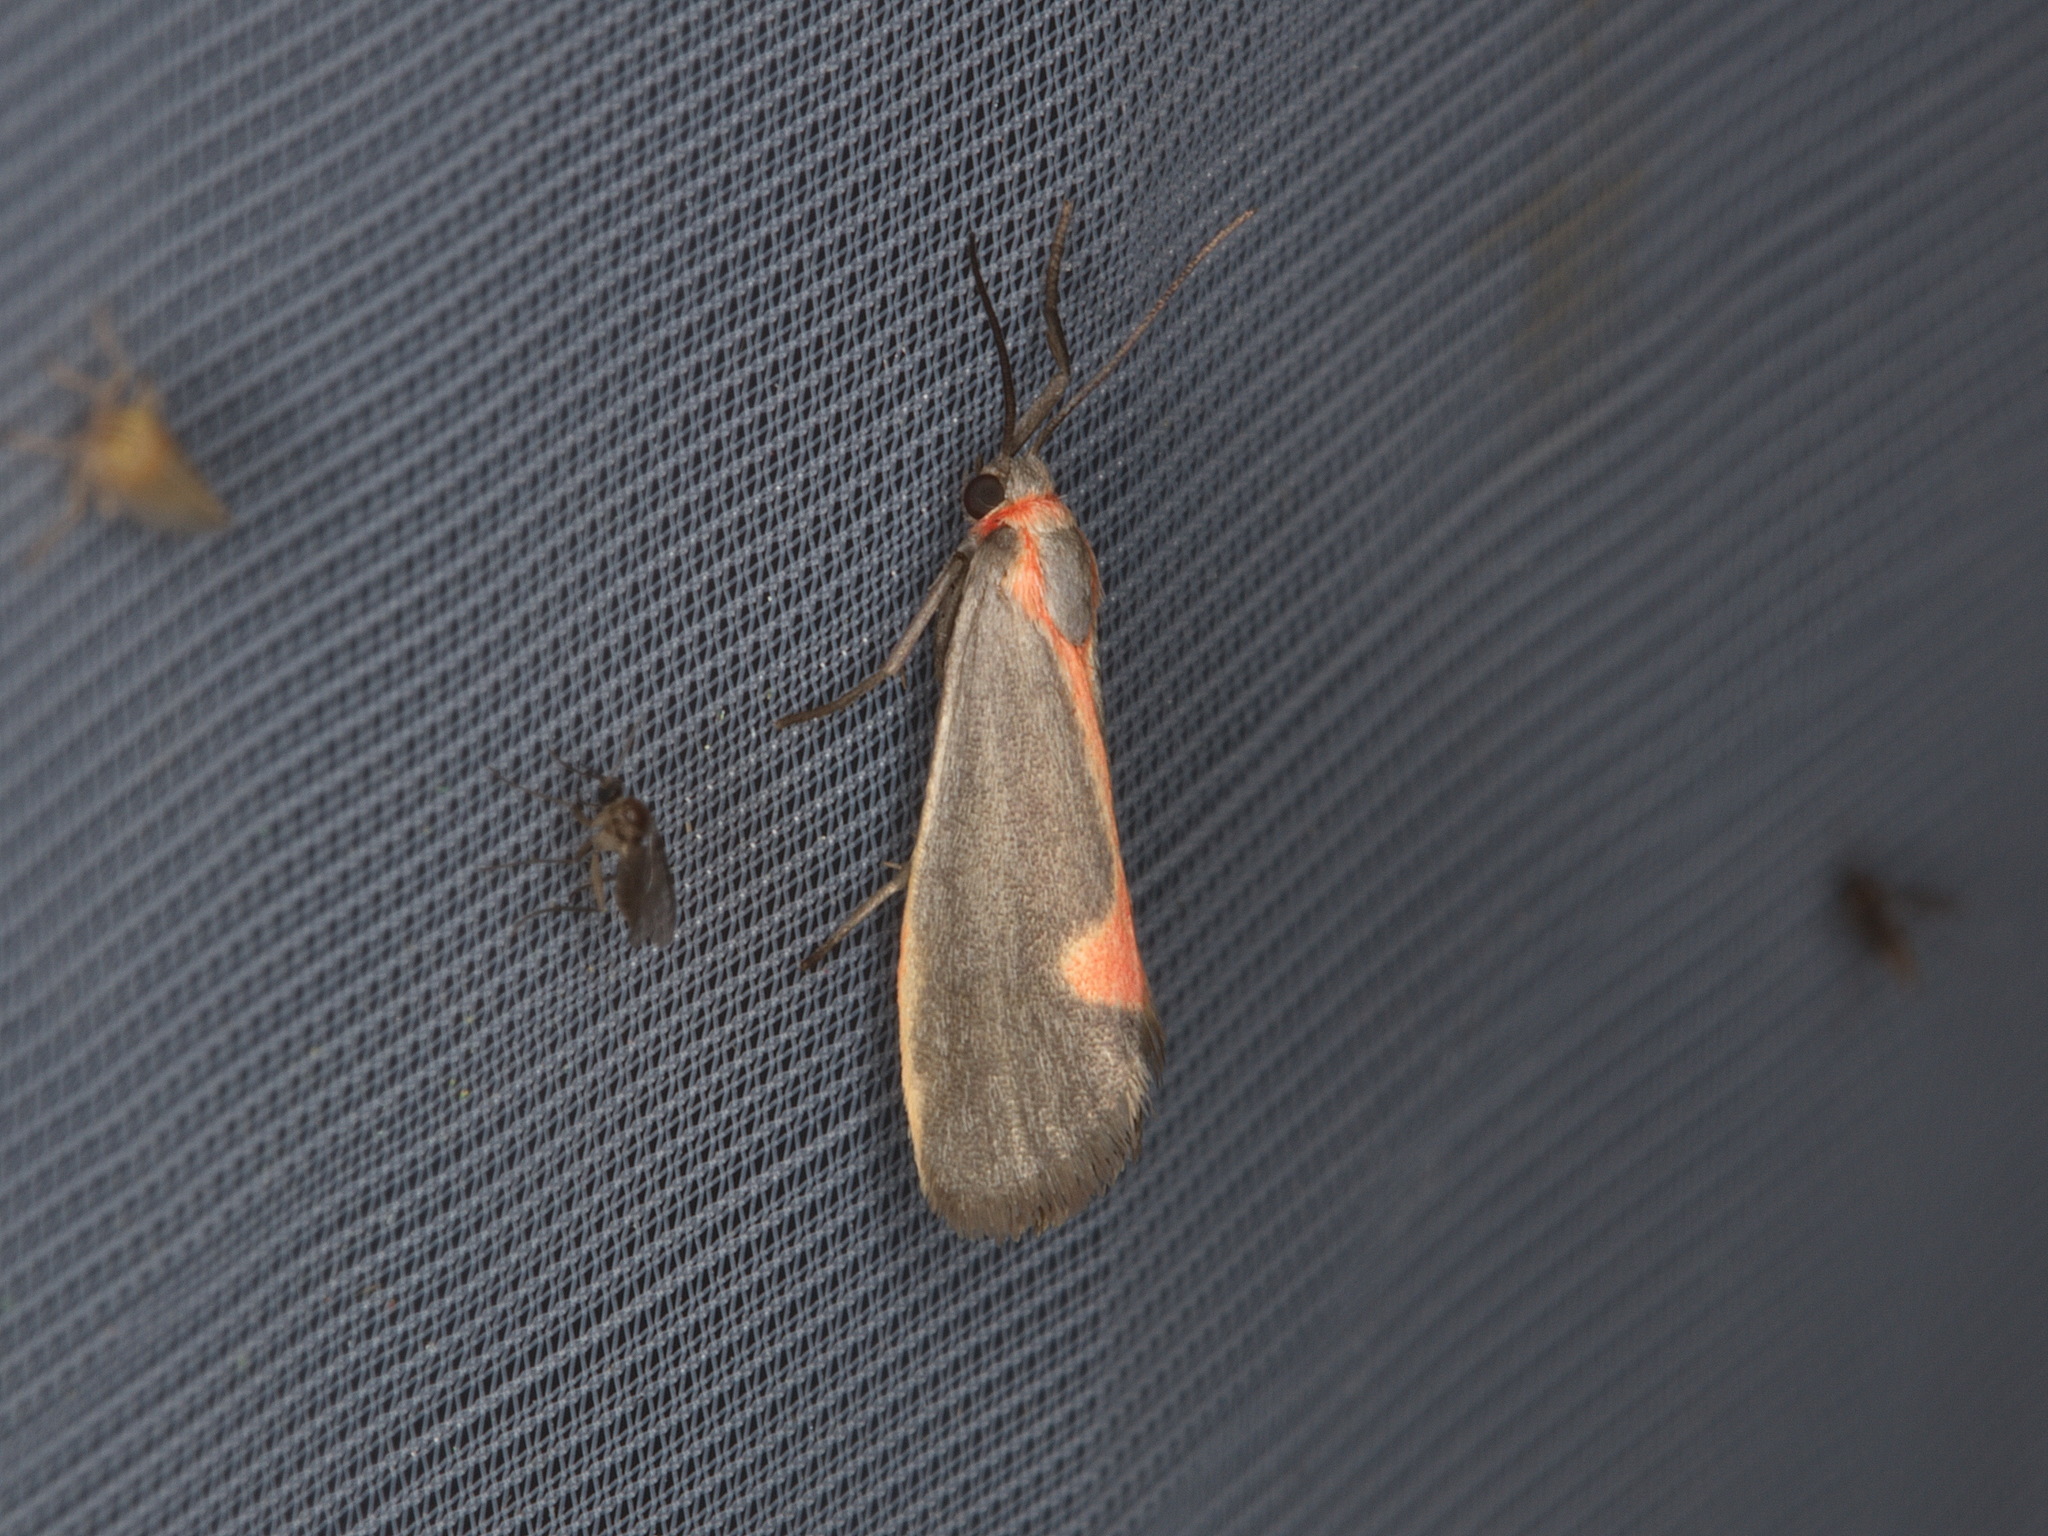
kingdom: Animalia
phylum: Arthropoda
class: Insecta
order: Lepidoptera
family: Erebidae
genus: Cisthene
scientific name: Cisthene plumbea
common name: Lead colored lichen moth
